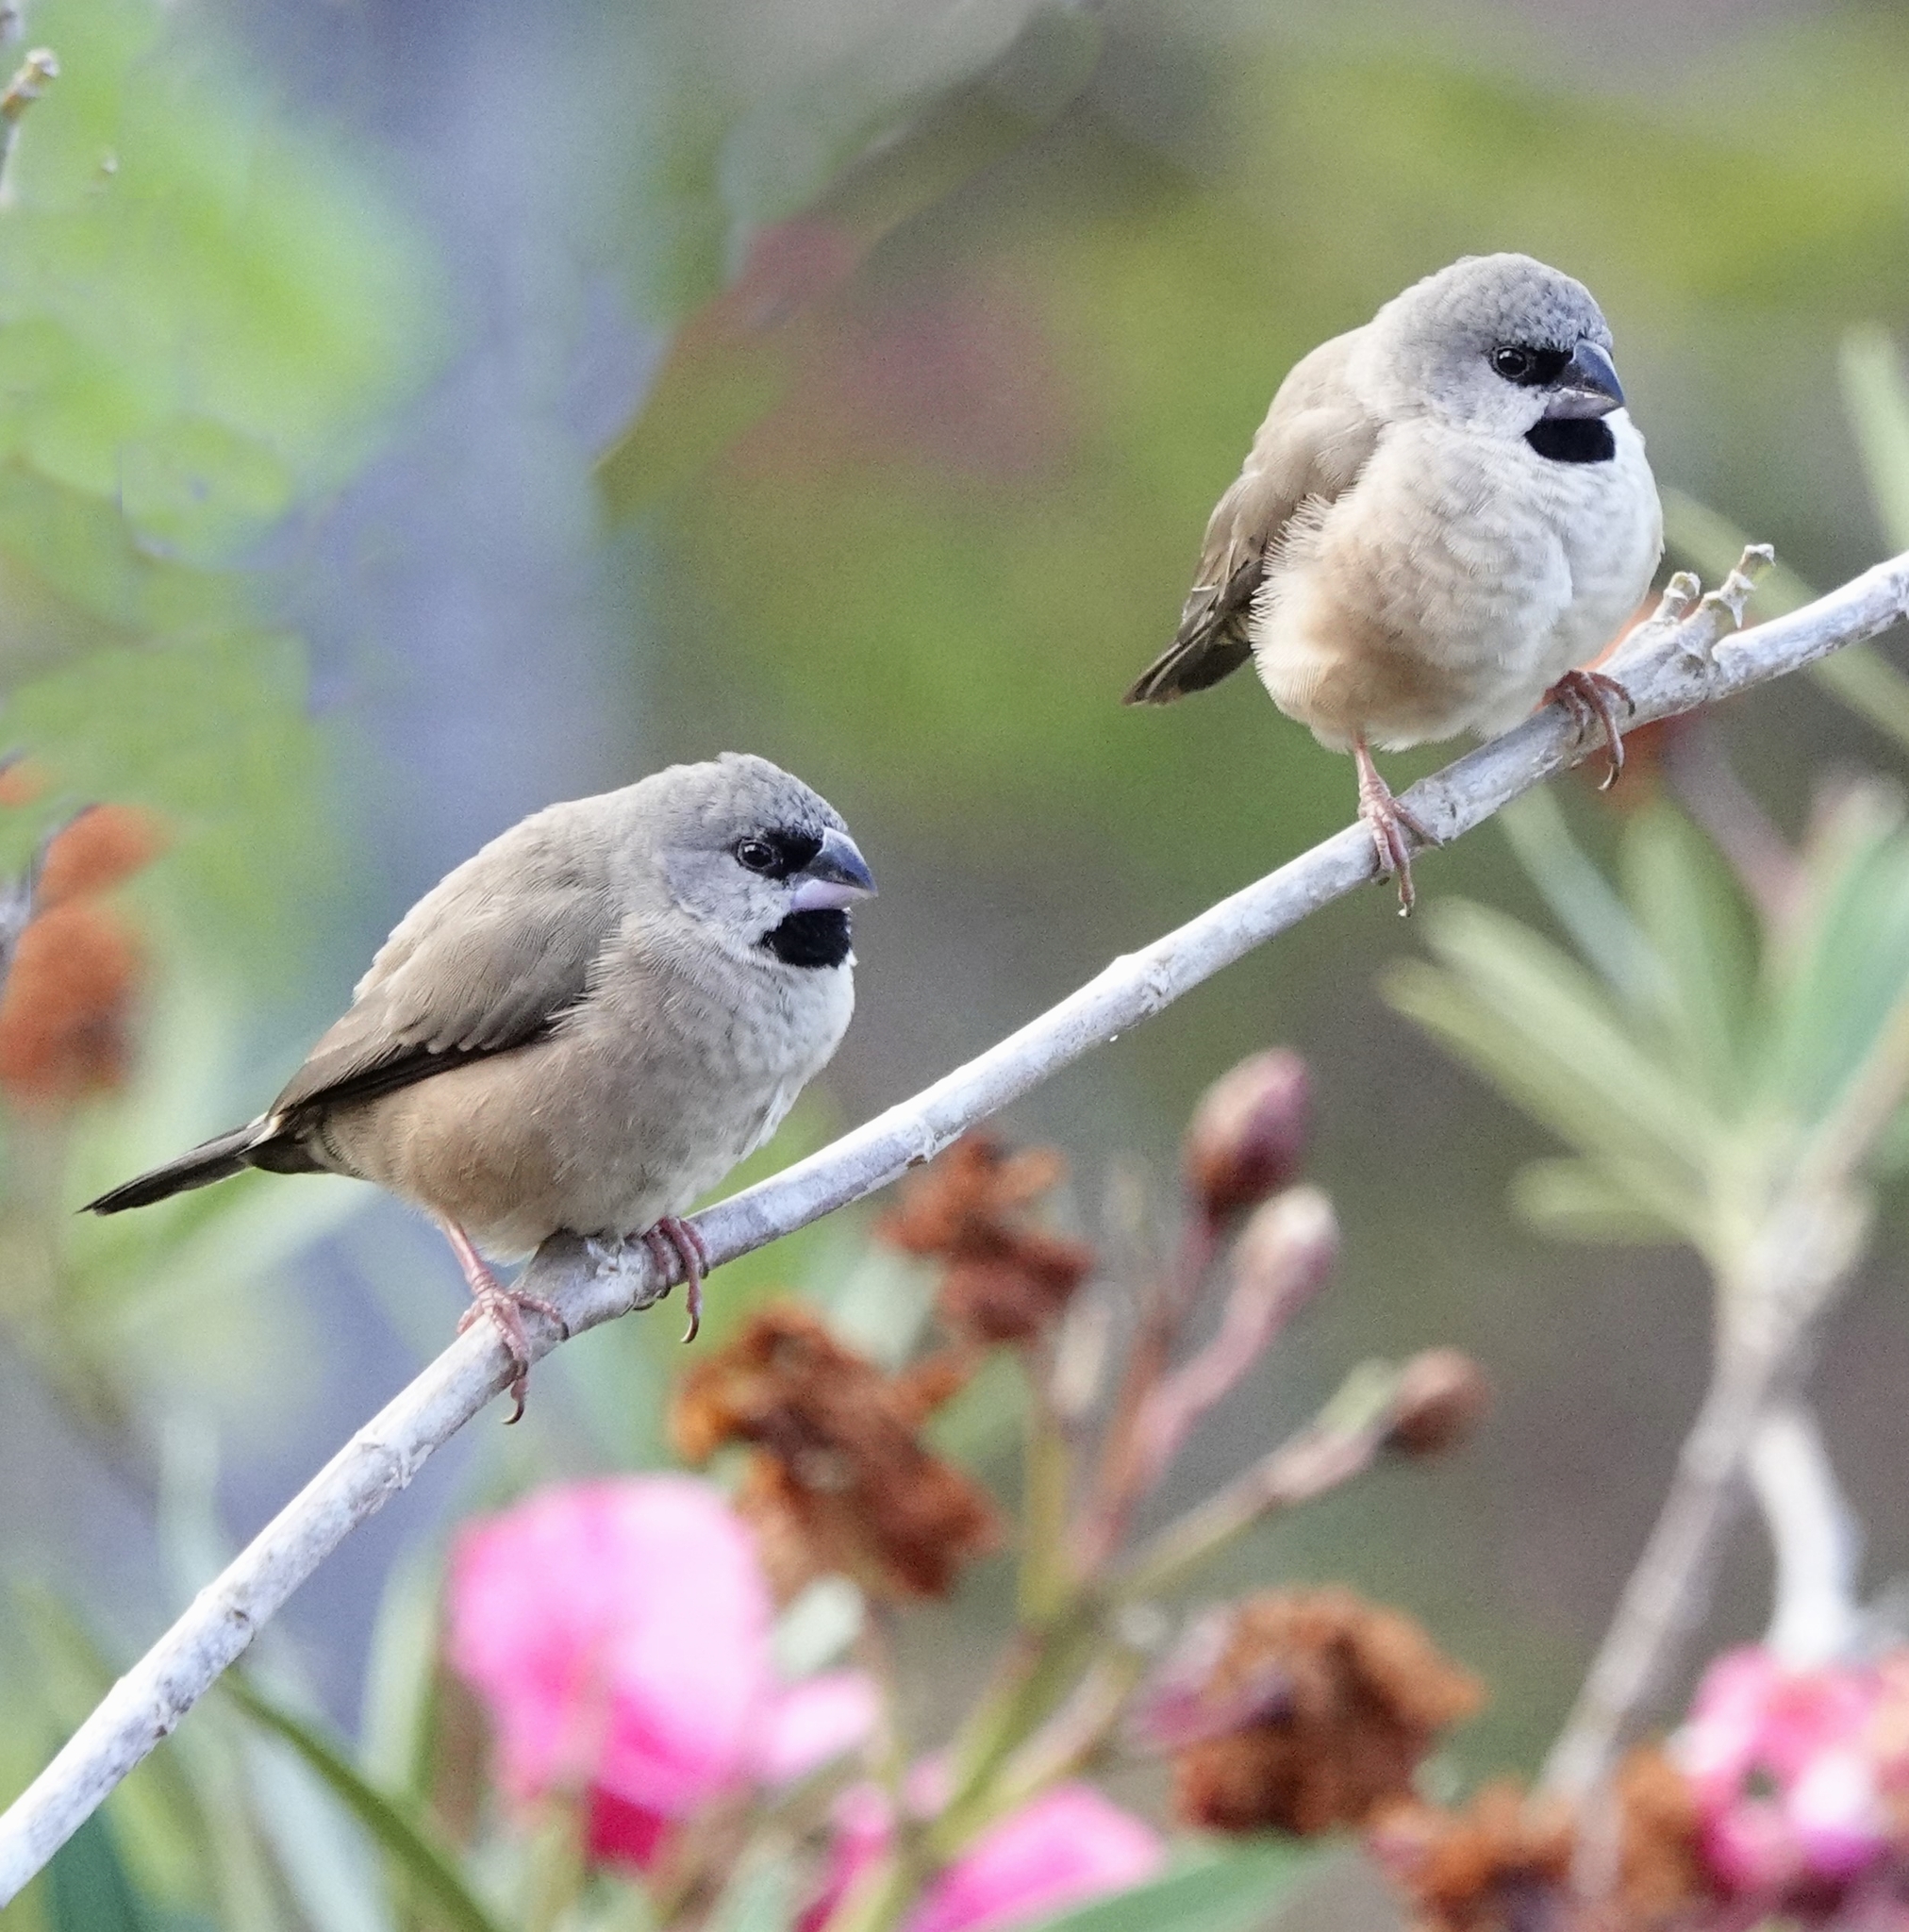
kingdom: Animalia
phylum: Chordata
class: Aves
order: Passeriformes
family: Estrildidae
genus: Lemuresthes
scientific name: Lemuresthes nana
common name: Madagascar mannikin
